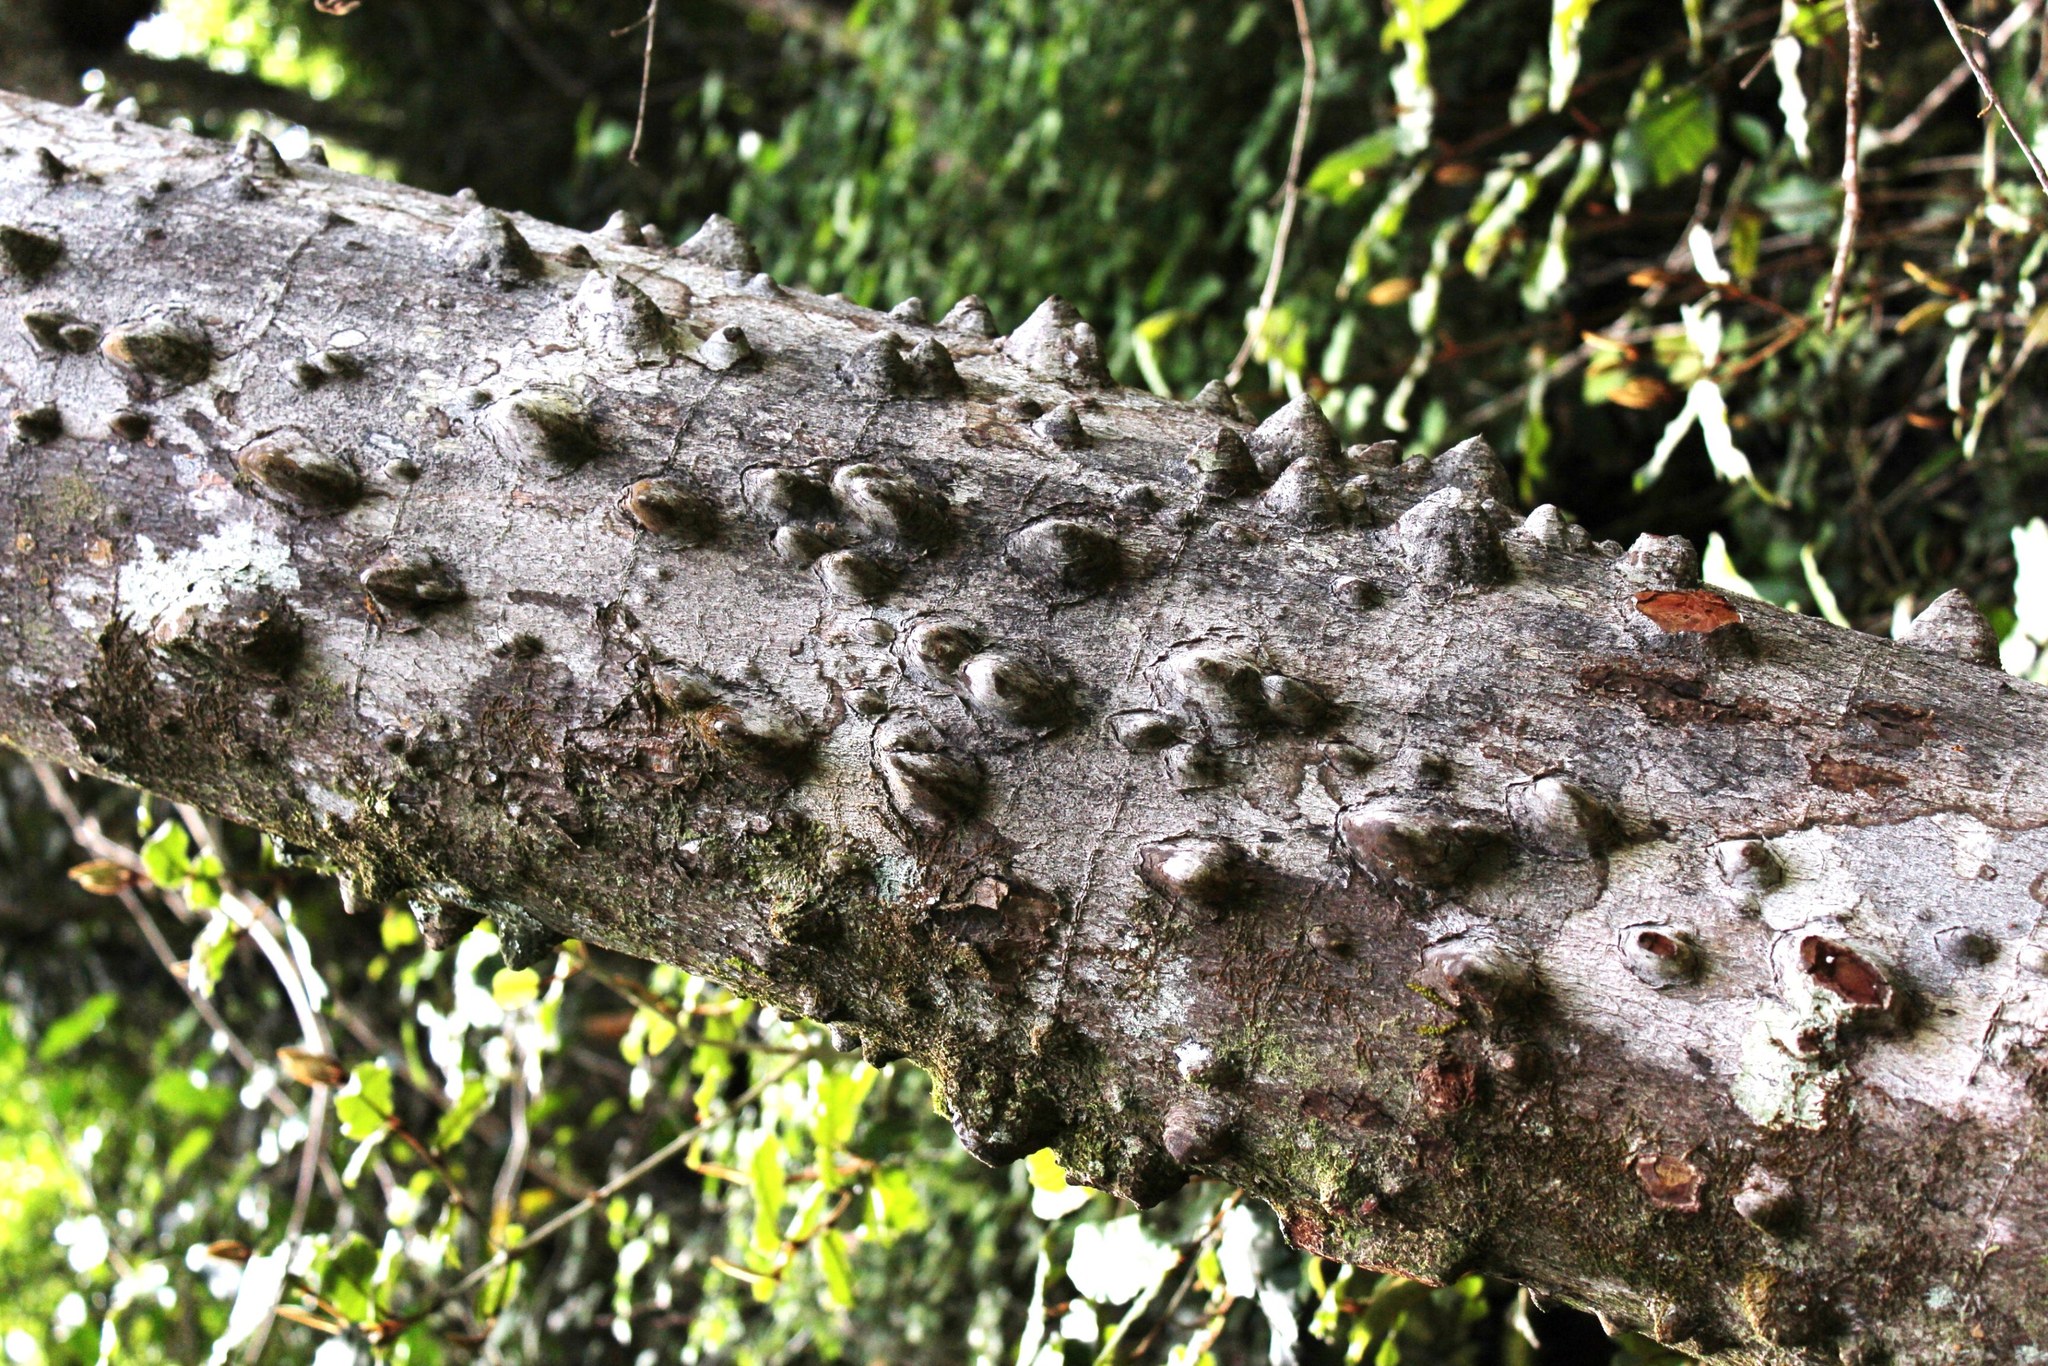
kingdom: Plantae
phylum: Tracheophyta
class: Magnoliopsida
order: Sapindales
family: Rutaceae
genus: Zanthoxylum
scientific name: Zanthoxylum davyi
